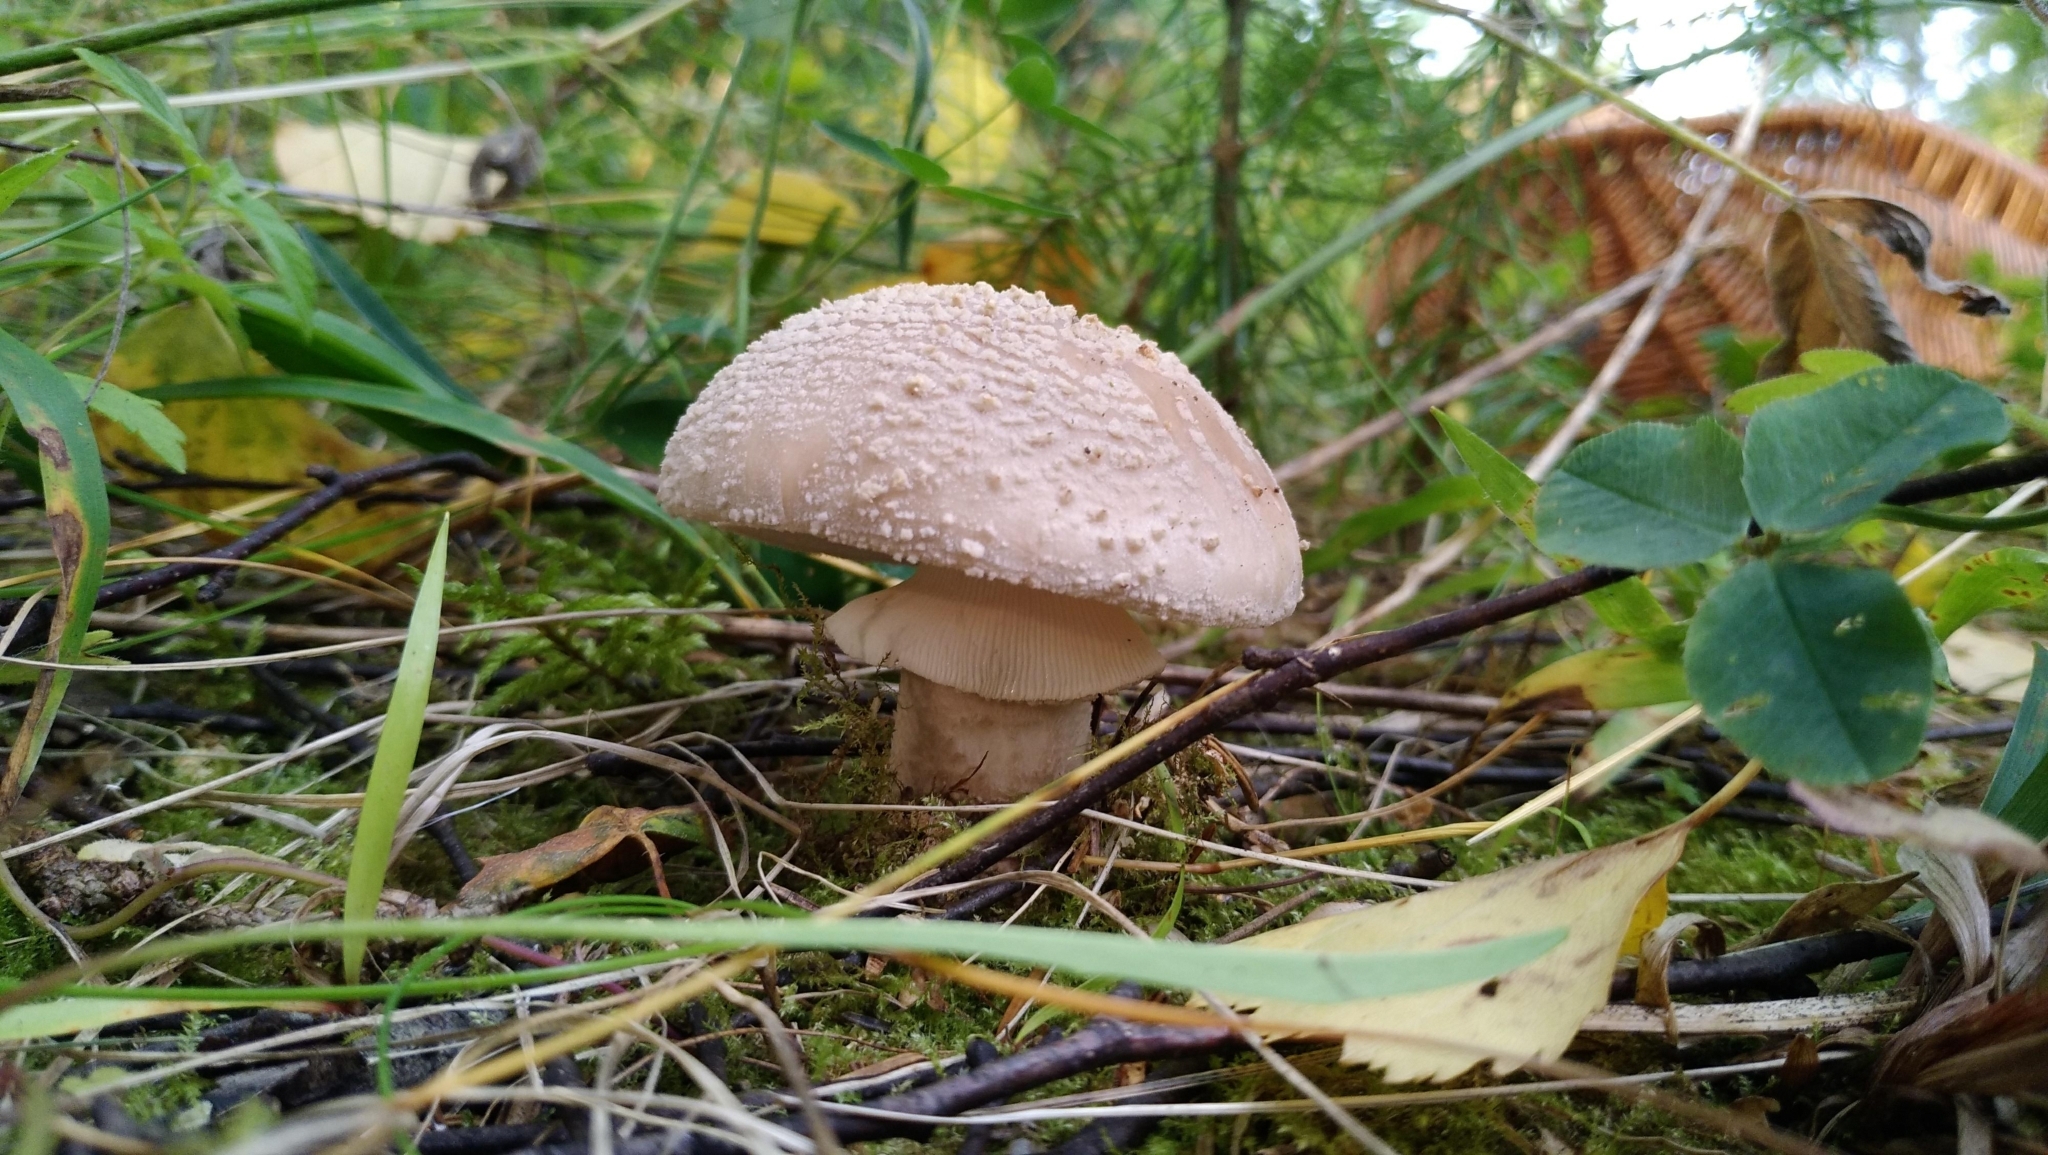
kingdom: Fungi
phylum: Basidiomycota
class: Agaricomycetes
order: Agaricales
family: Amanitaceae
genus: Amanita
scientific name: Amanita rubescens
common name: Blusher
